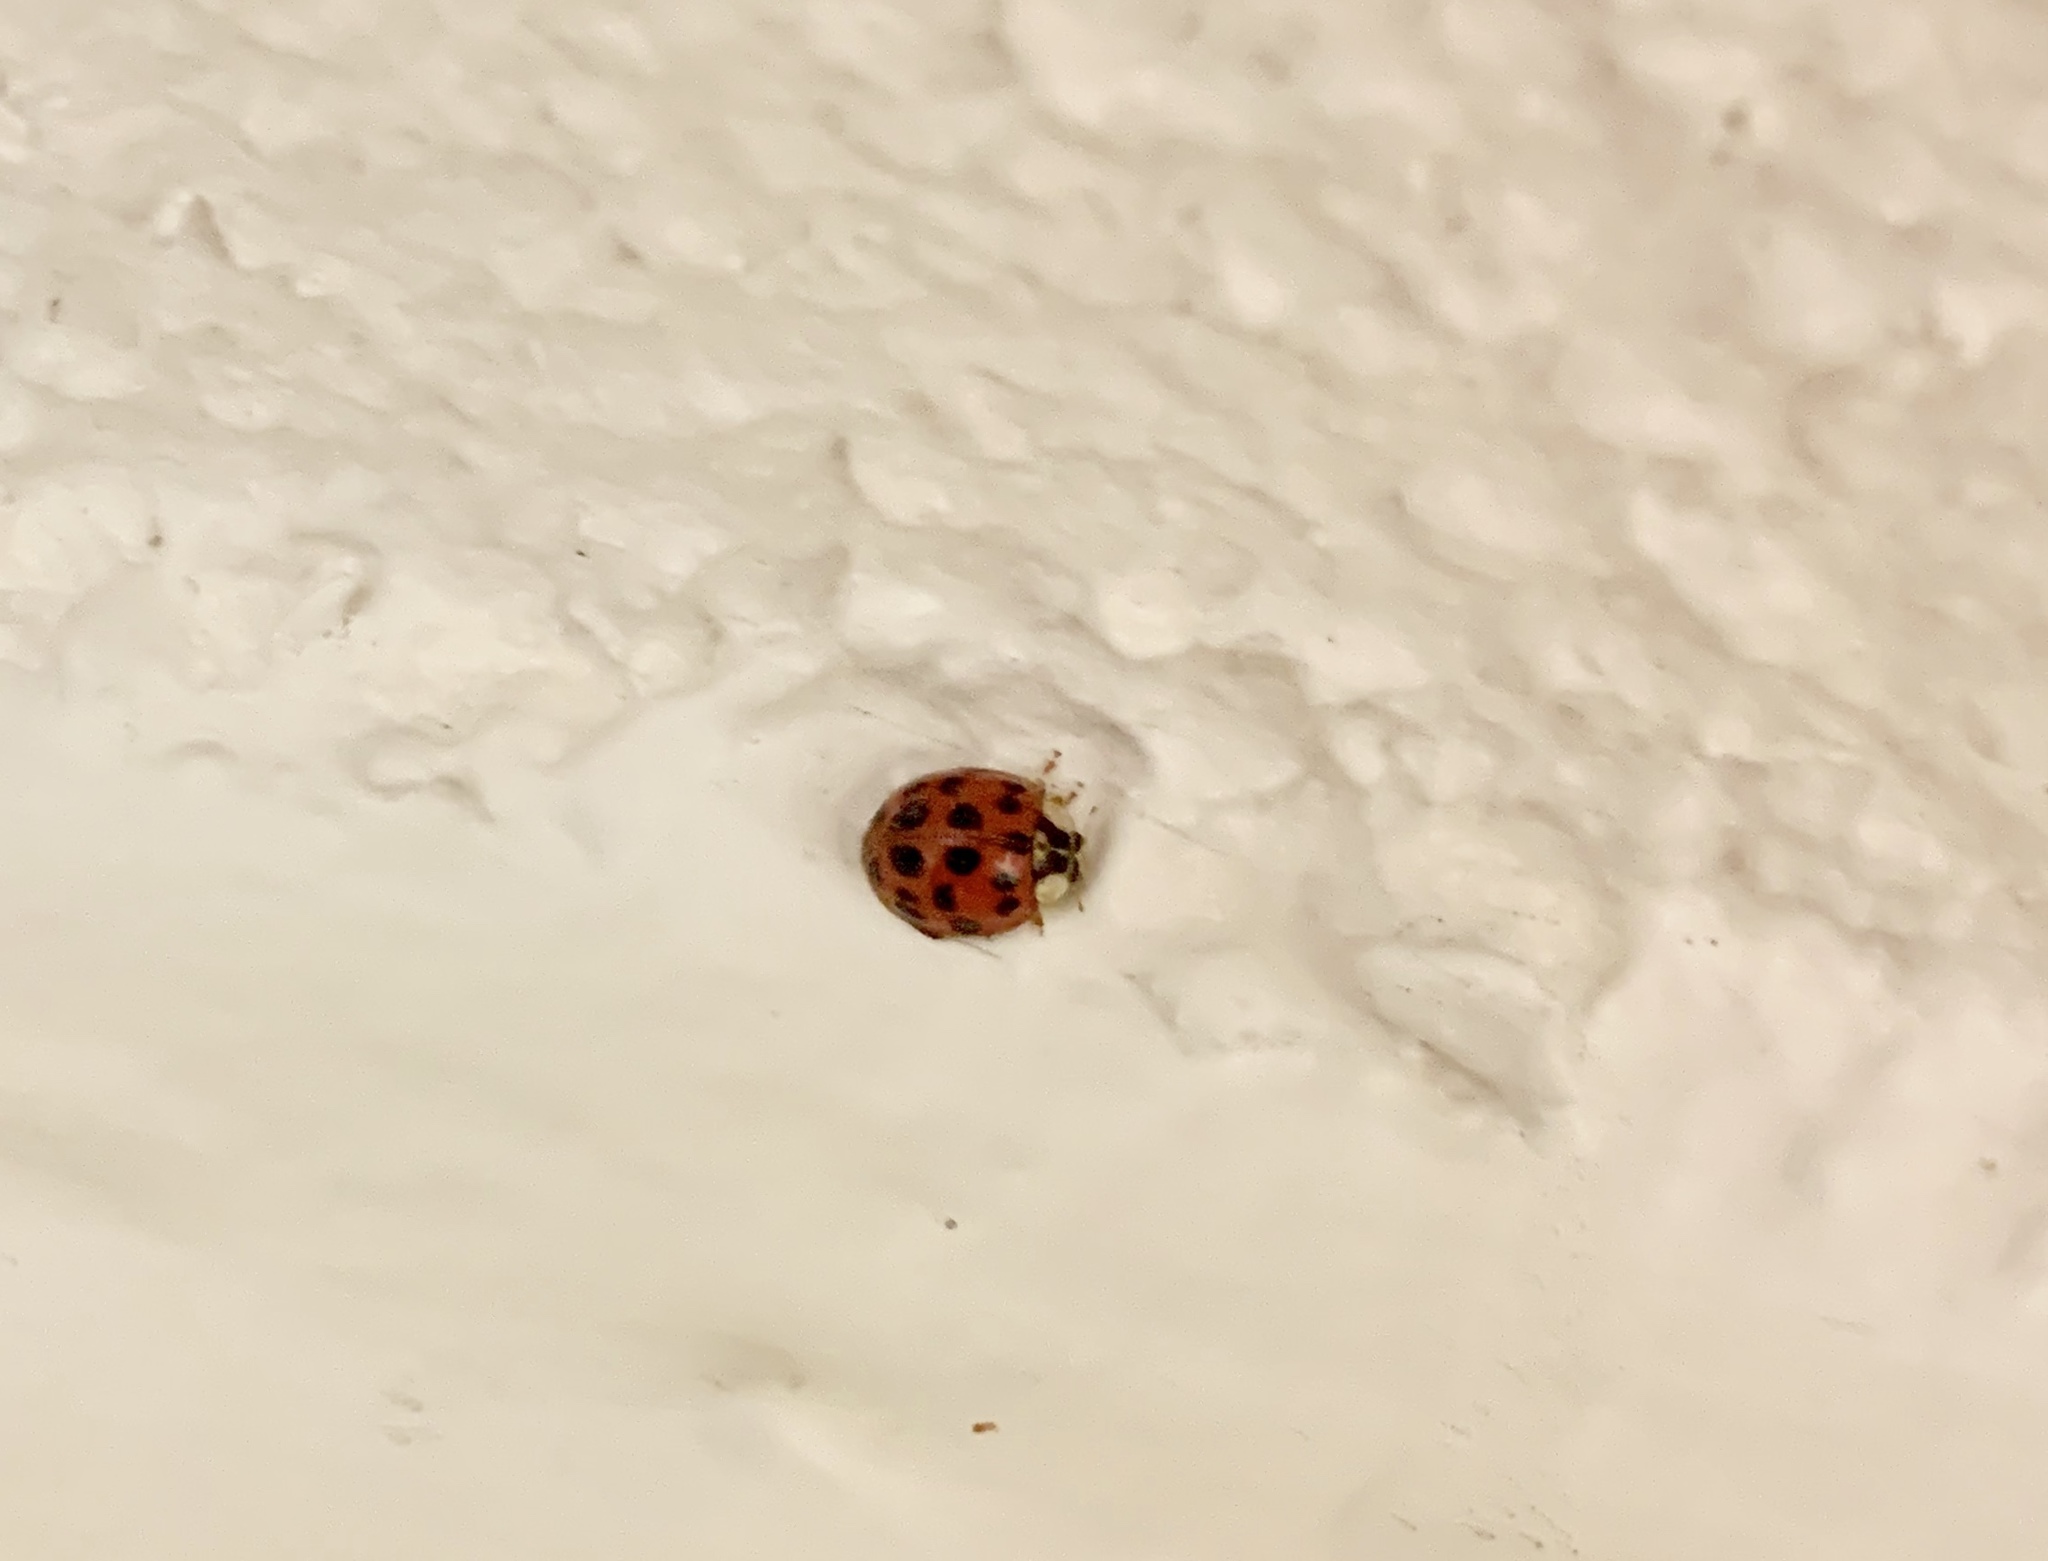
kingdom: Animalia
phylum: Arthropoda
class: Insecta
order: Coleoptera
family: Coccinellidae
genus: Harmonia
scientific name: Harmonia axyridis
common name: Harlequin ladybird
